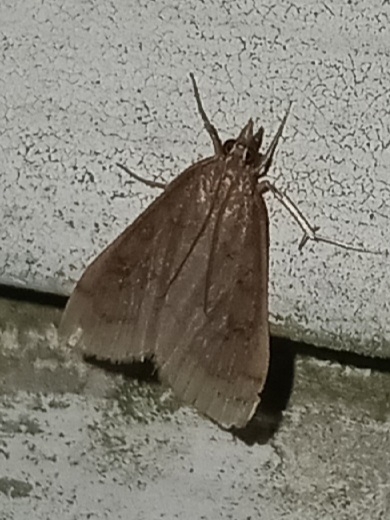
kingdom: Animalia
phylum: Arthropoda
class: Insecta
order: Lepidoptera
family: Crambidae
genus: Udea
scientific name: Udea rubigalis
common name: Celery leaftier moth
